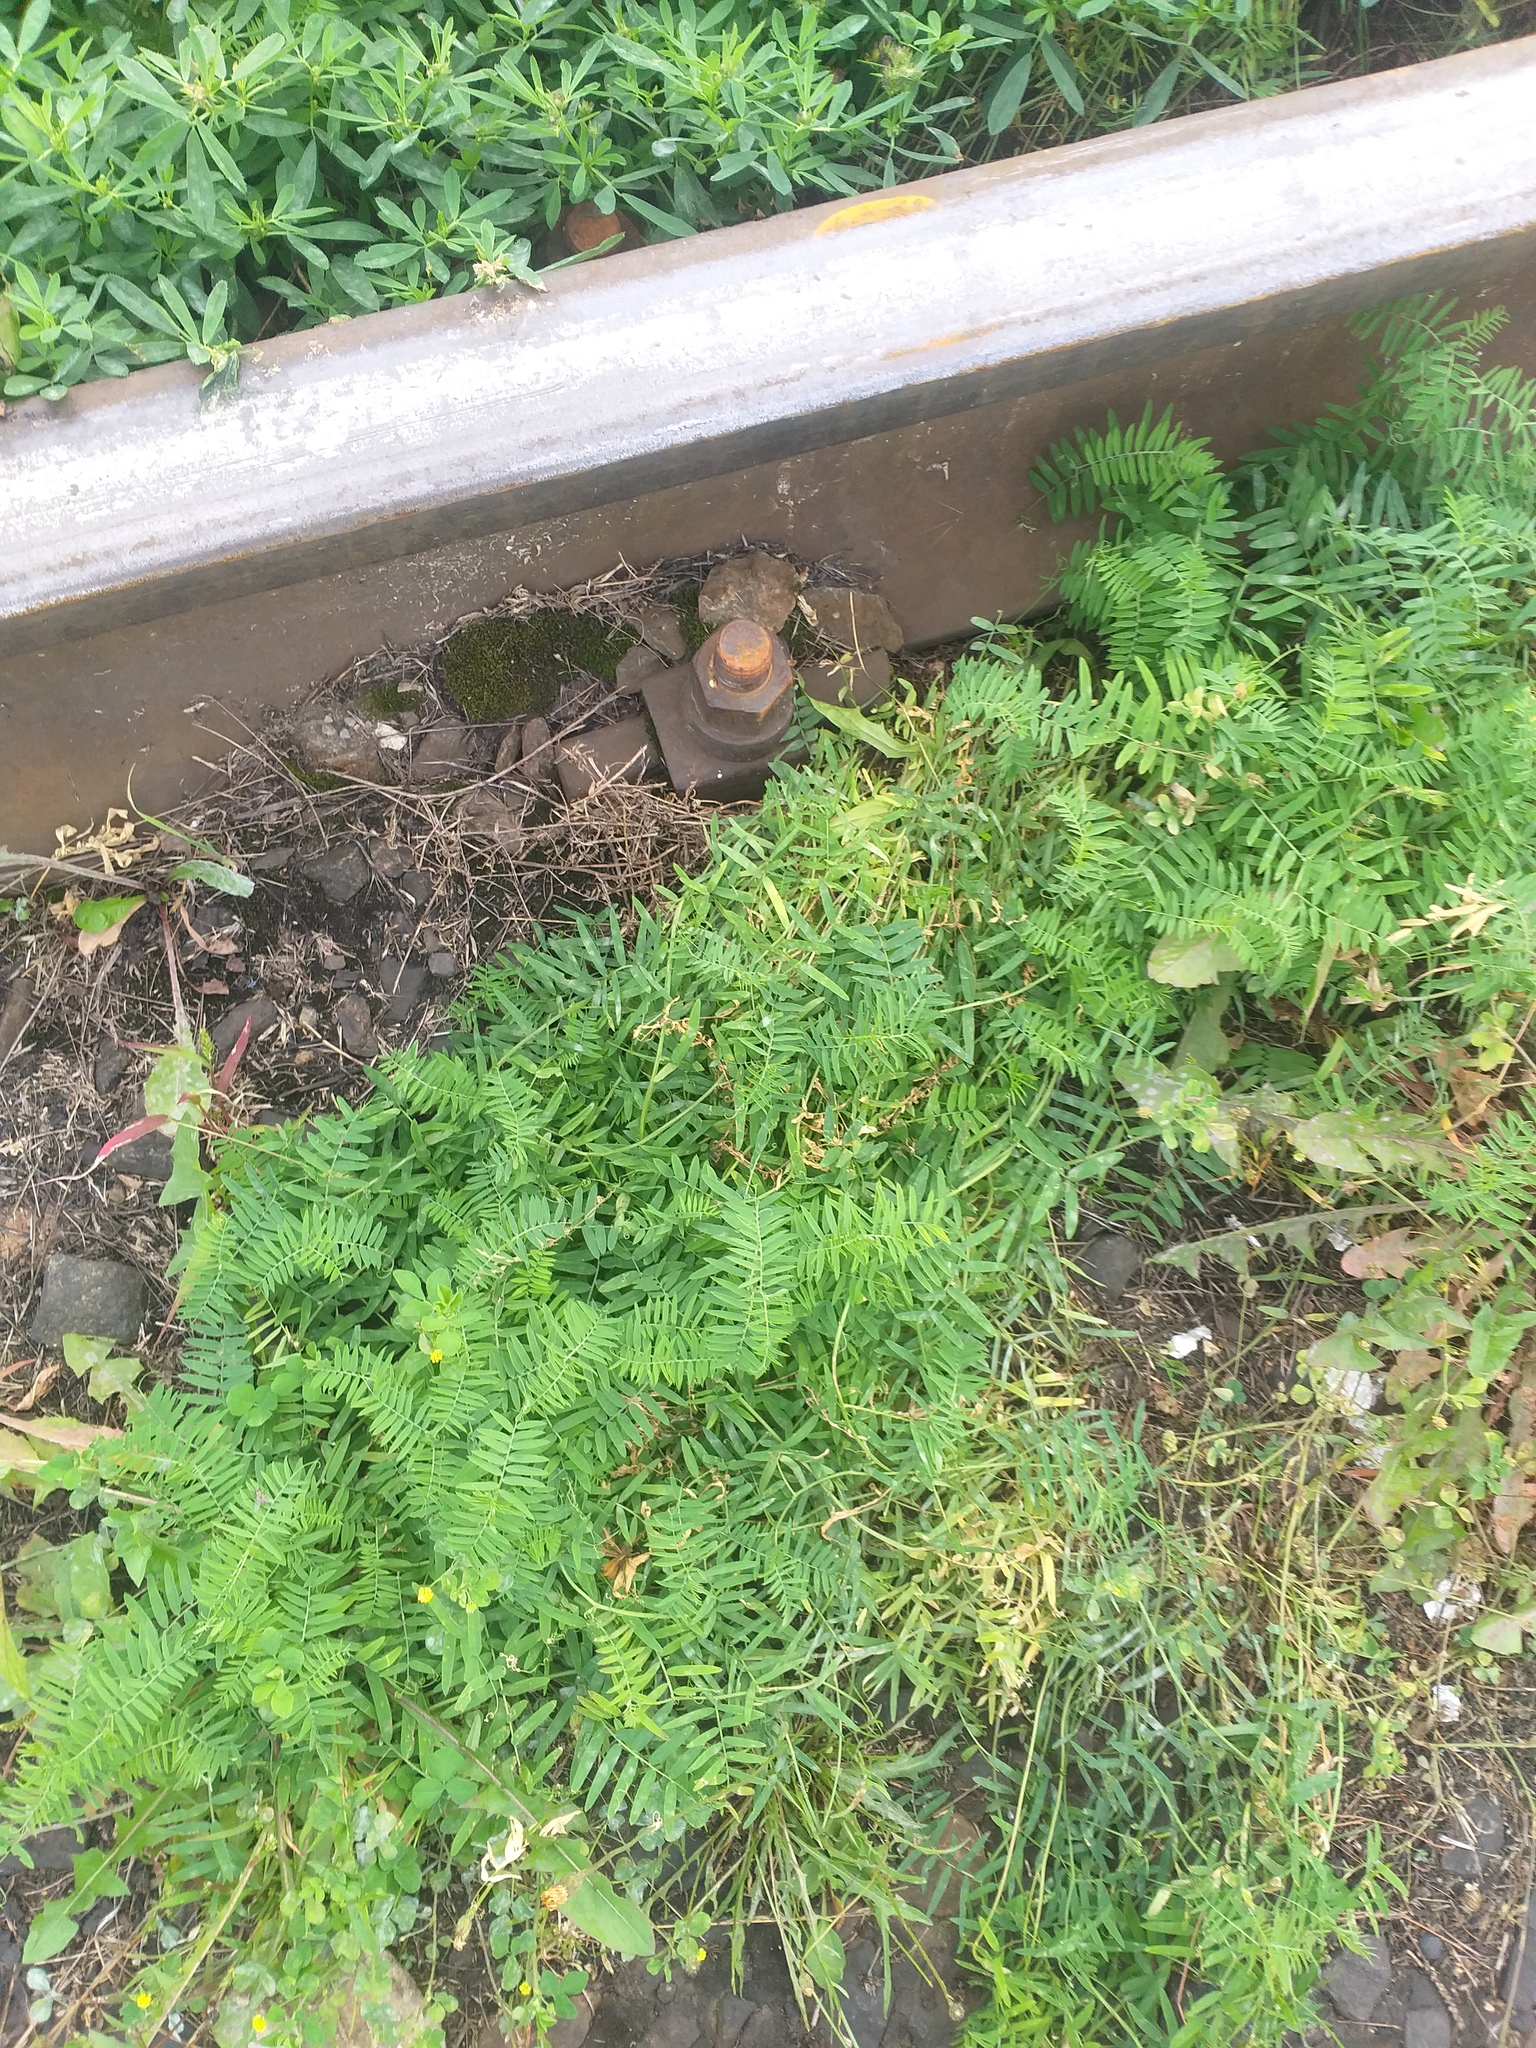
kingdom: Plantae
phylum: Tracheophyta
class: Magnoliopsida
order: Fabales
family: Fabaceae
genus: Vicia
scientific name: Vicia cracca
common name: Bird vetch
